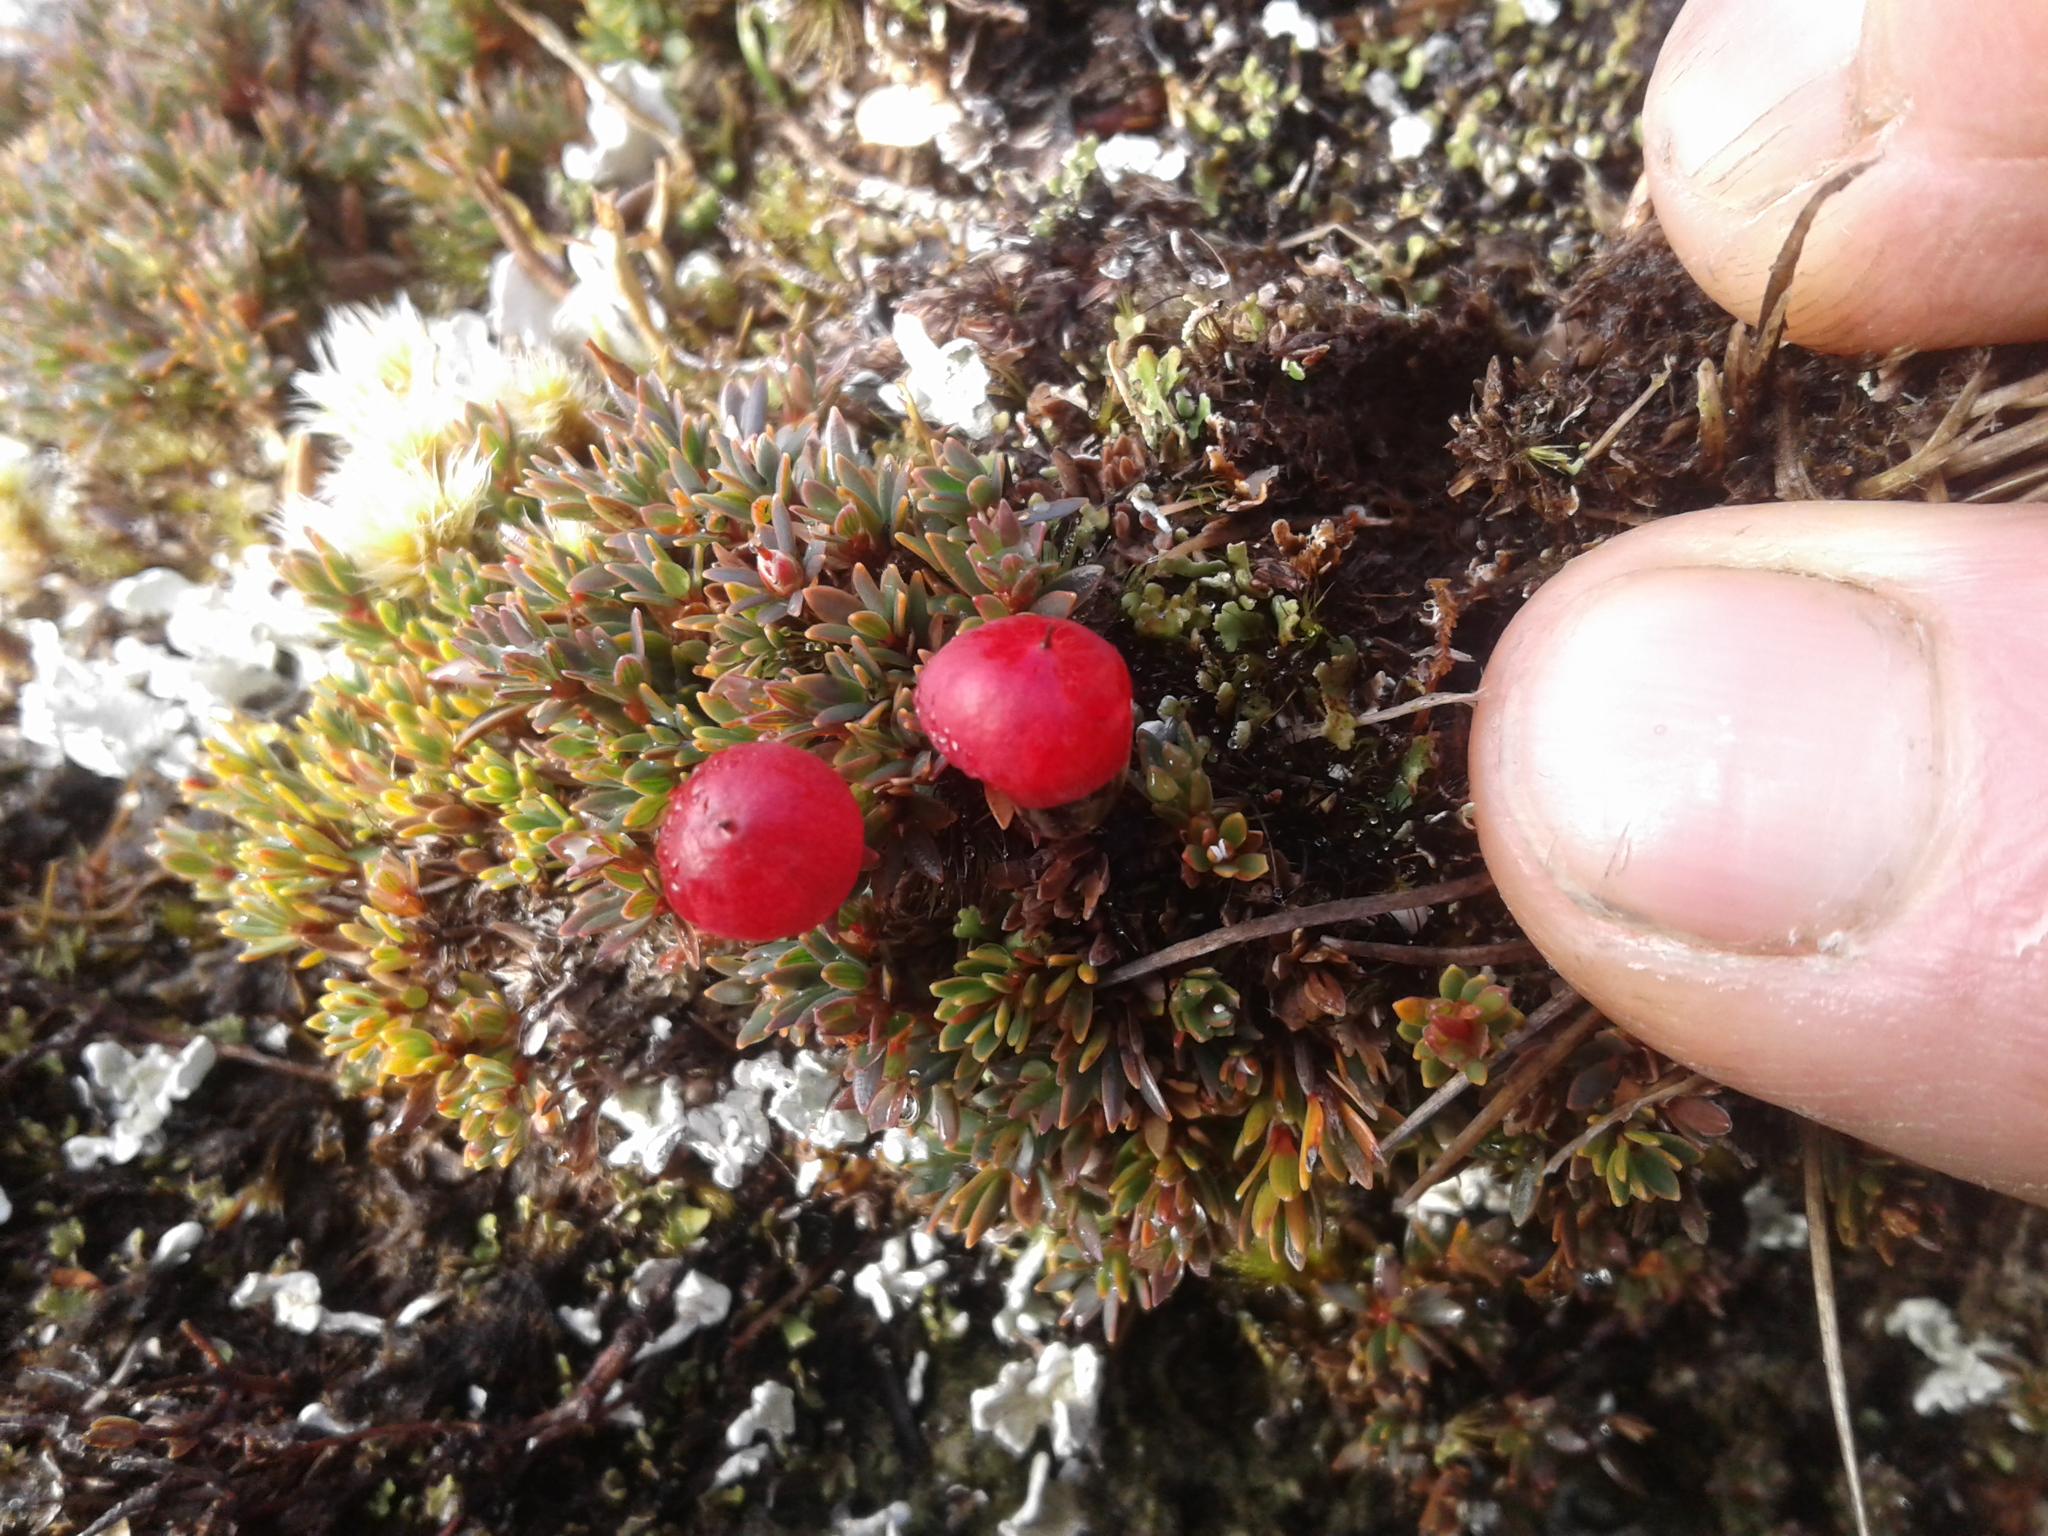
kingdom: Plantae
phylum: Tracheophyta
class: Magnoliopsida
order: Ericales
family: Ericaceae
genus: Pentachondra
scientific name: Pentachondra pumila
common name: Carpet-heath
